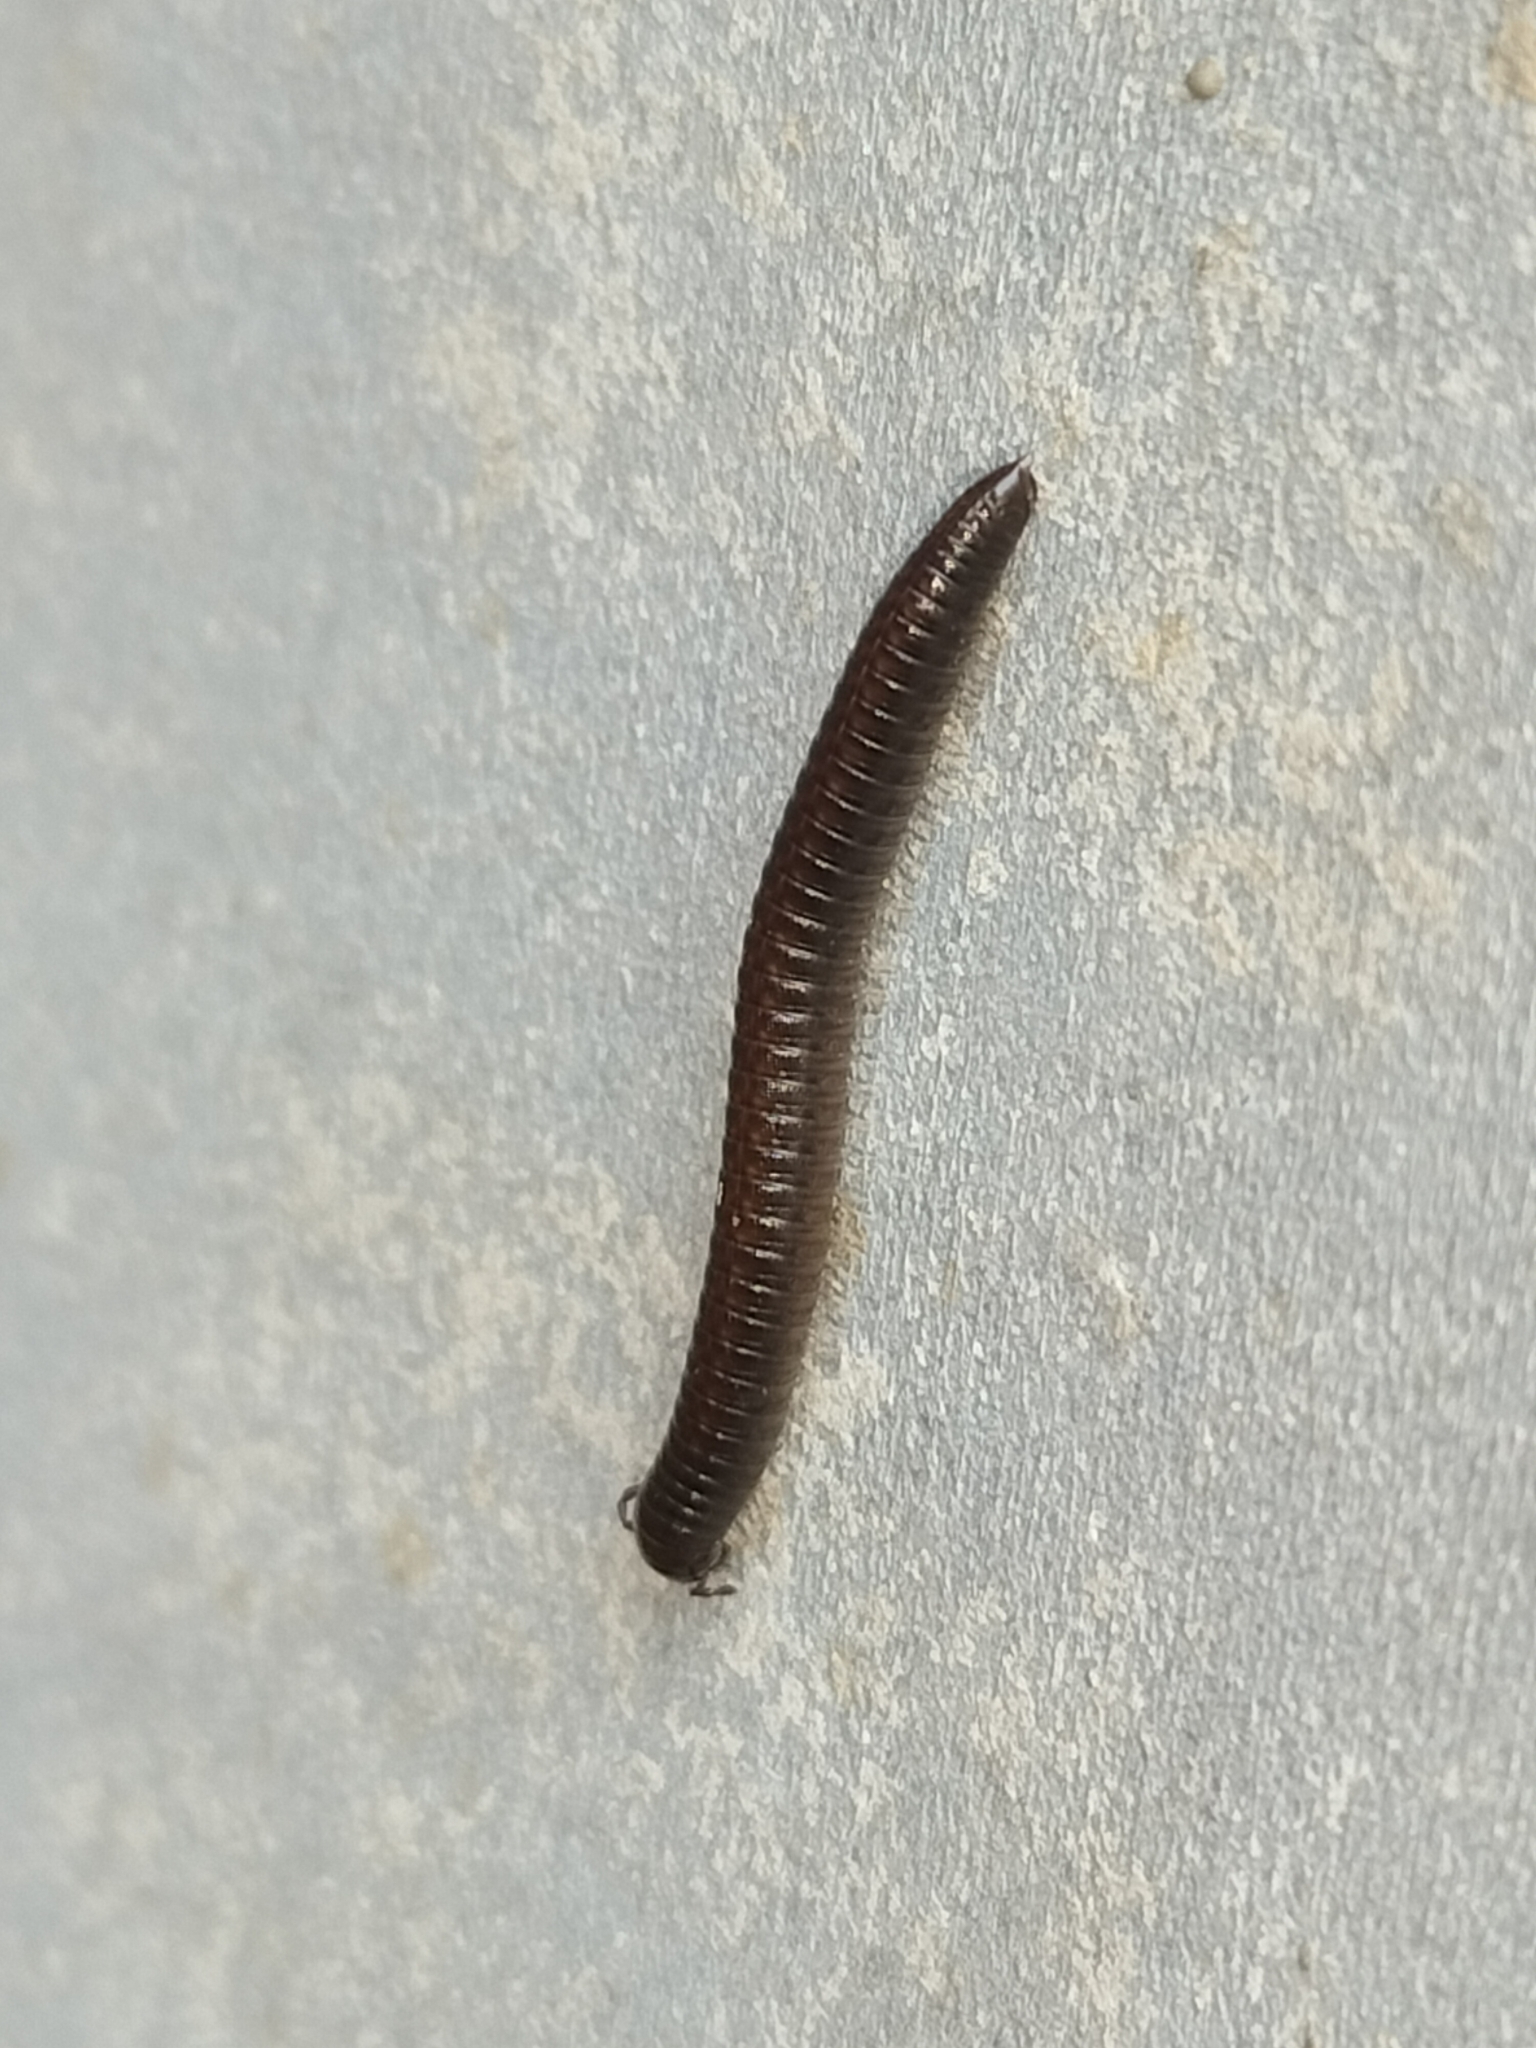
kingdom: Animalia
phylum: Arthropoda
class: Diplopoda
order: Julida
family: Julidae
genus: Ommatoiulus
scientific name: Ommatoiulus moreleti
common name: Portuguese millipede
